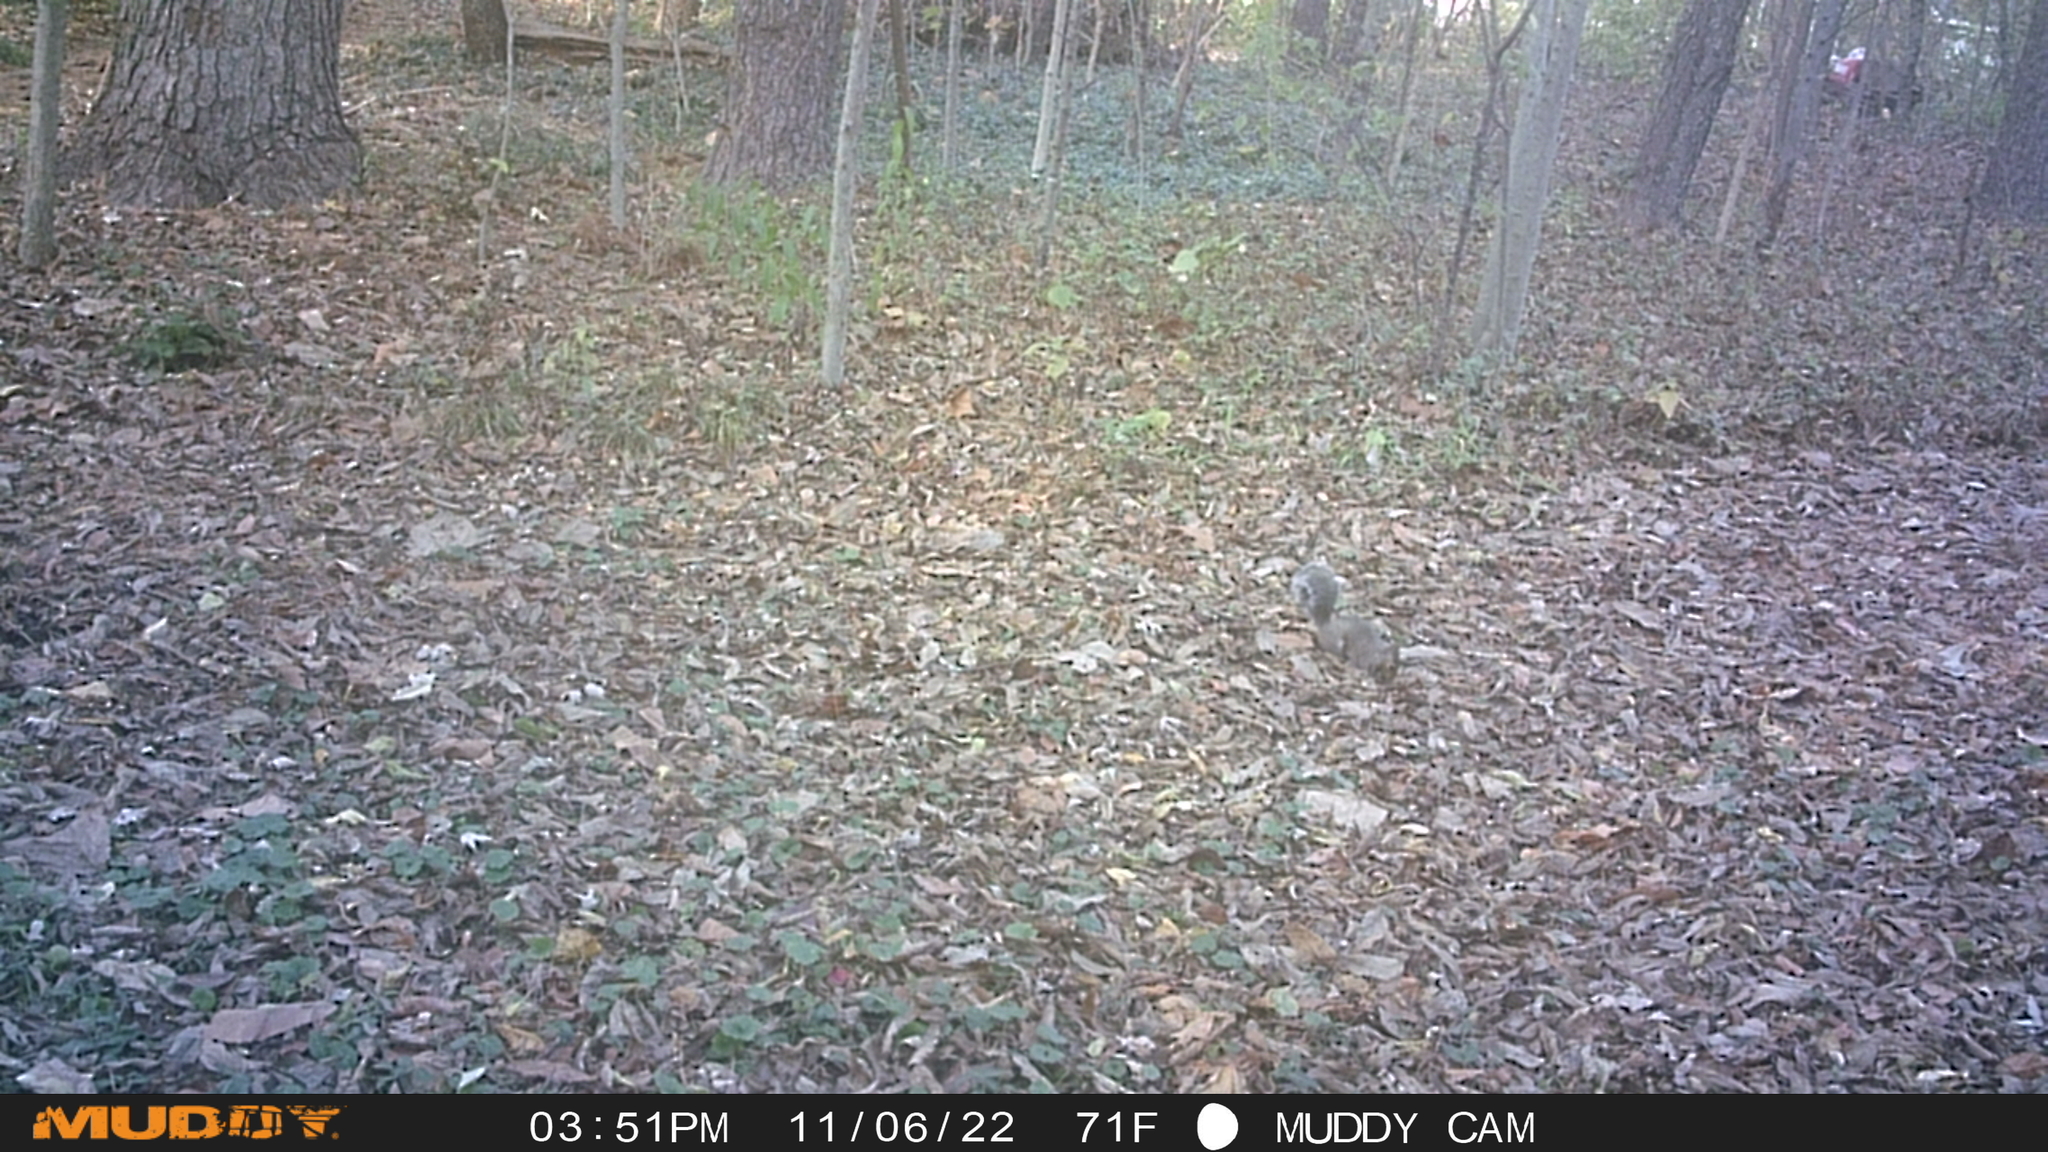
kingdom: Animalia
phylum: Chordata
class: Mammalia
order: Rodentia
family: Sciuridae
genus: Sciurus
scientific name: Sciurus carolinensis
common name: Eastern gray squirrel
